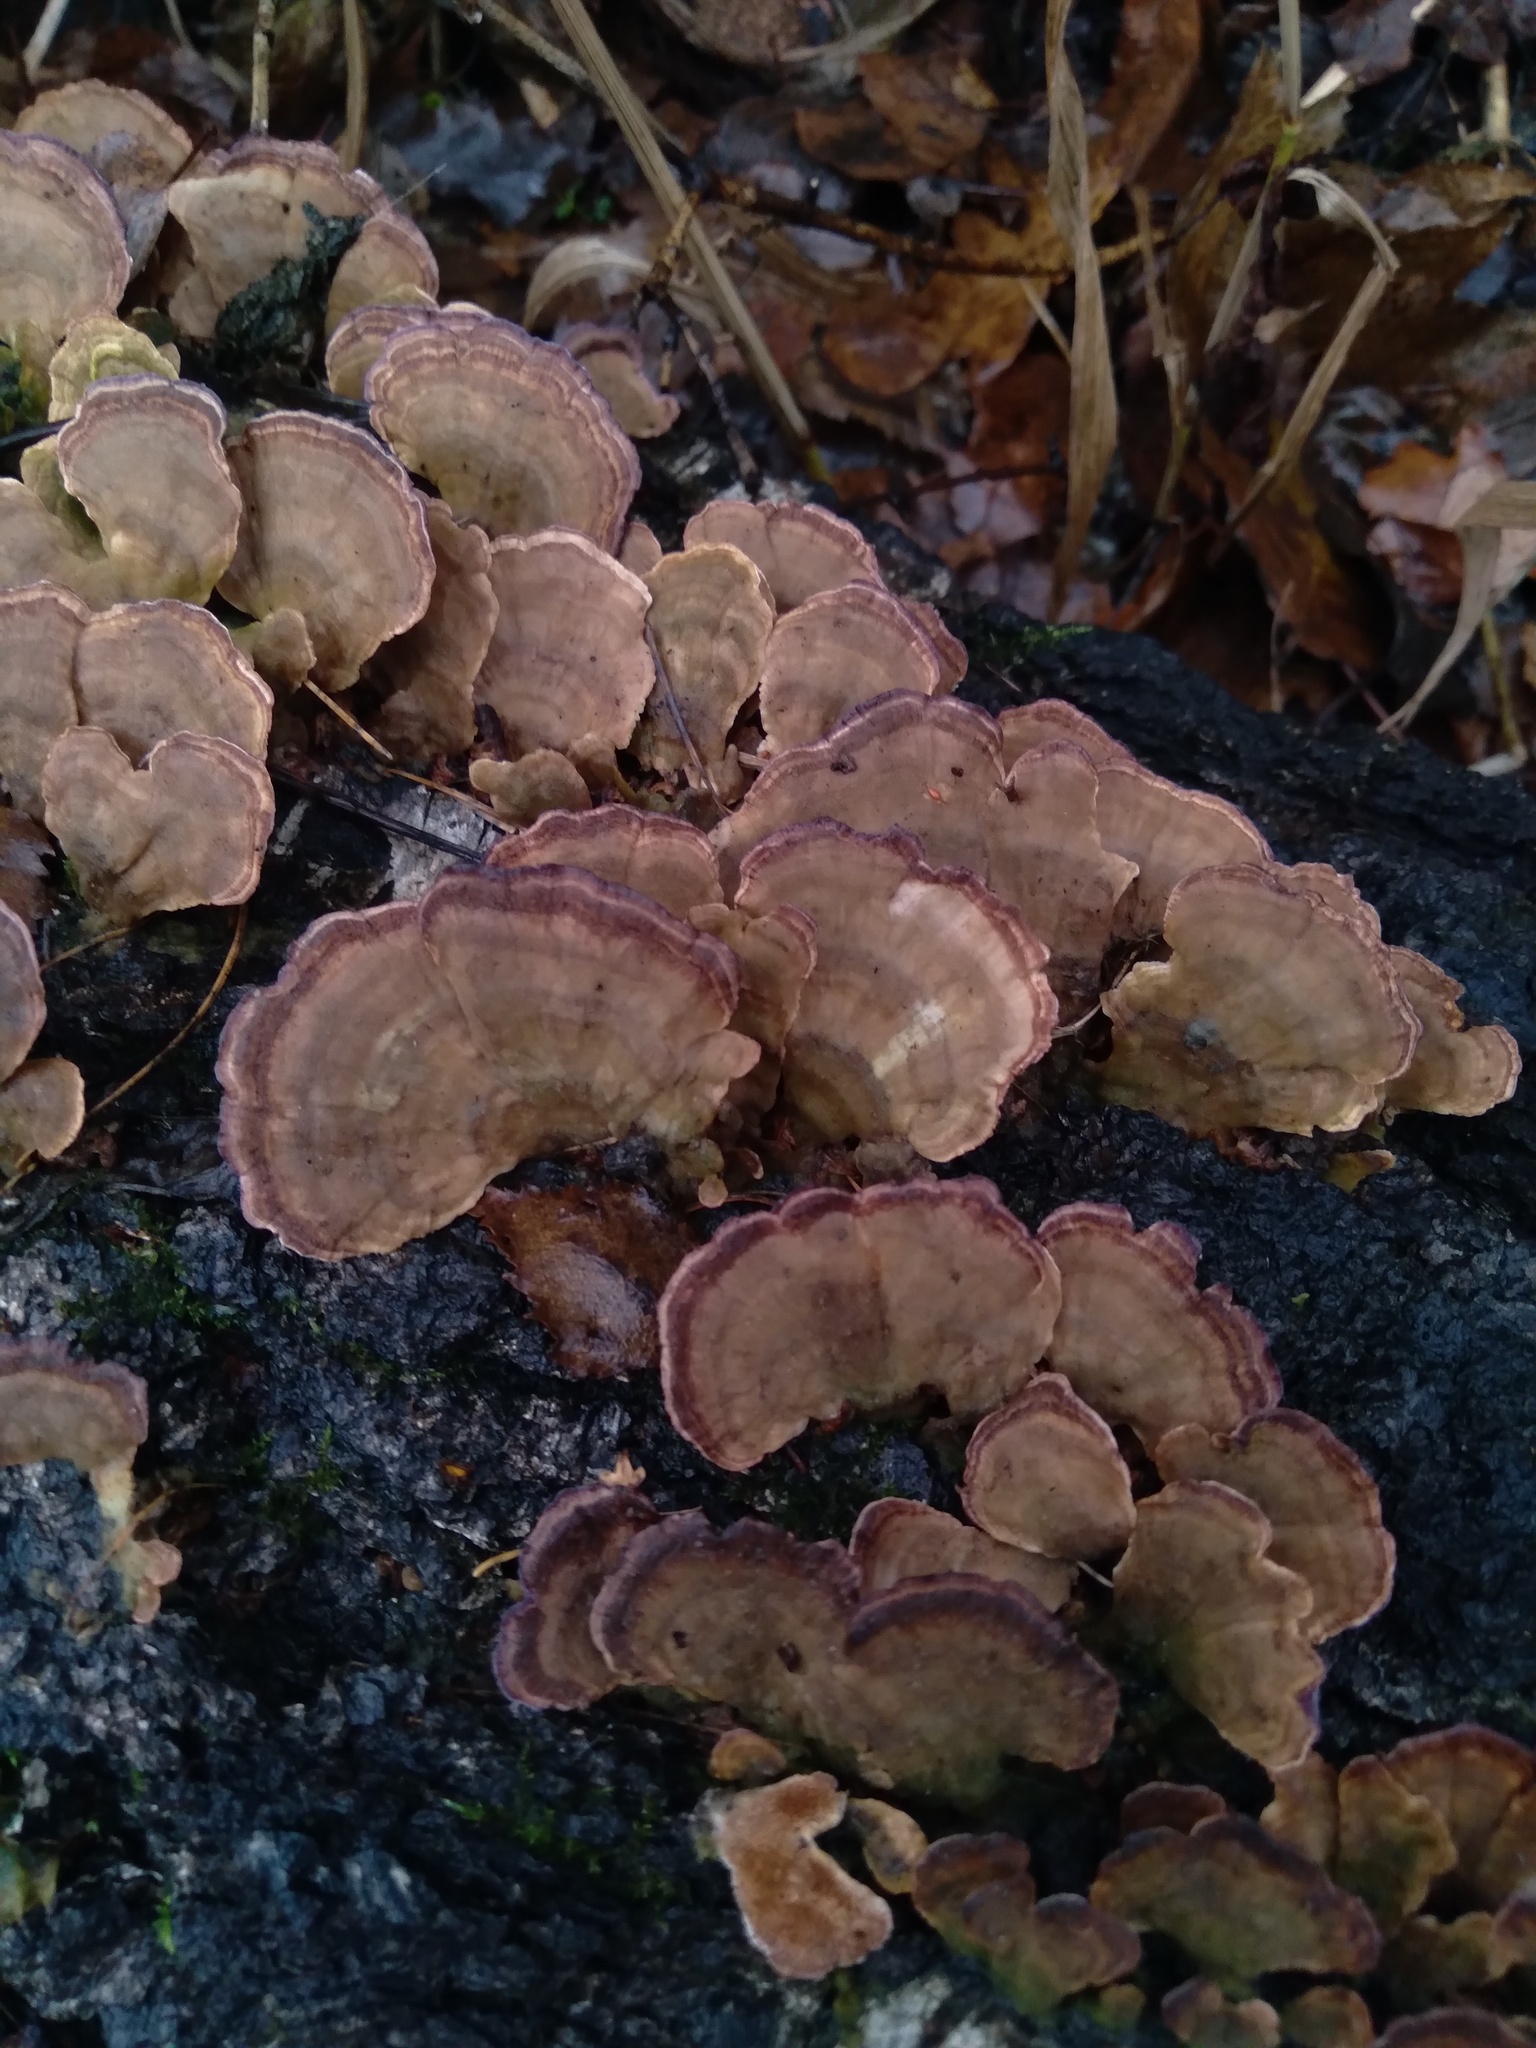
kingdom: Fungi
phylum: Basidiomycota
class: Agaricomycetes
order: Hymenochaetales
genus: Trichaptum
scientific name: Trichaptum biforme
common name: Violet-toothed polypore
